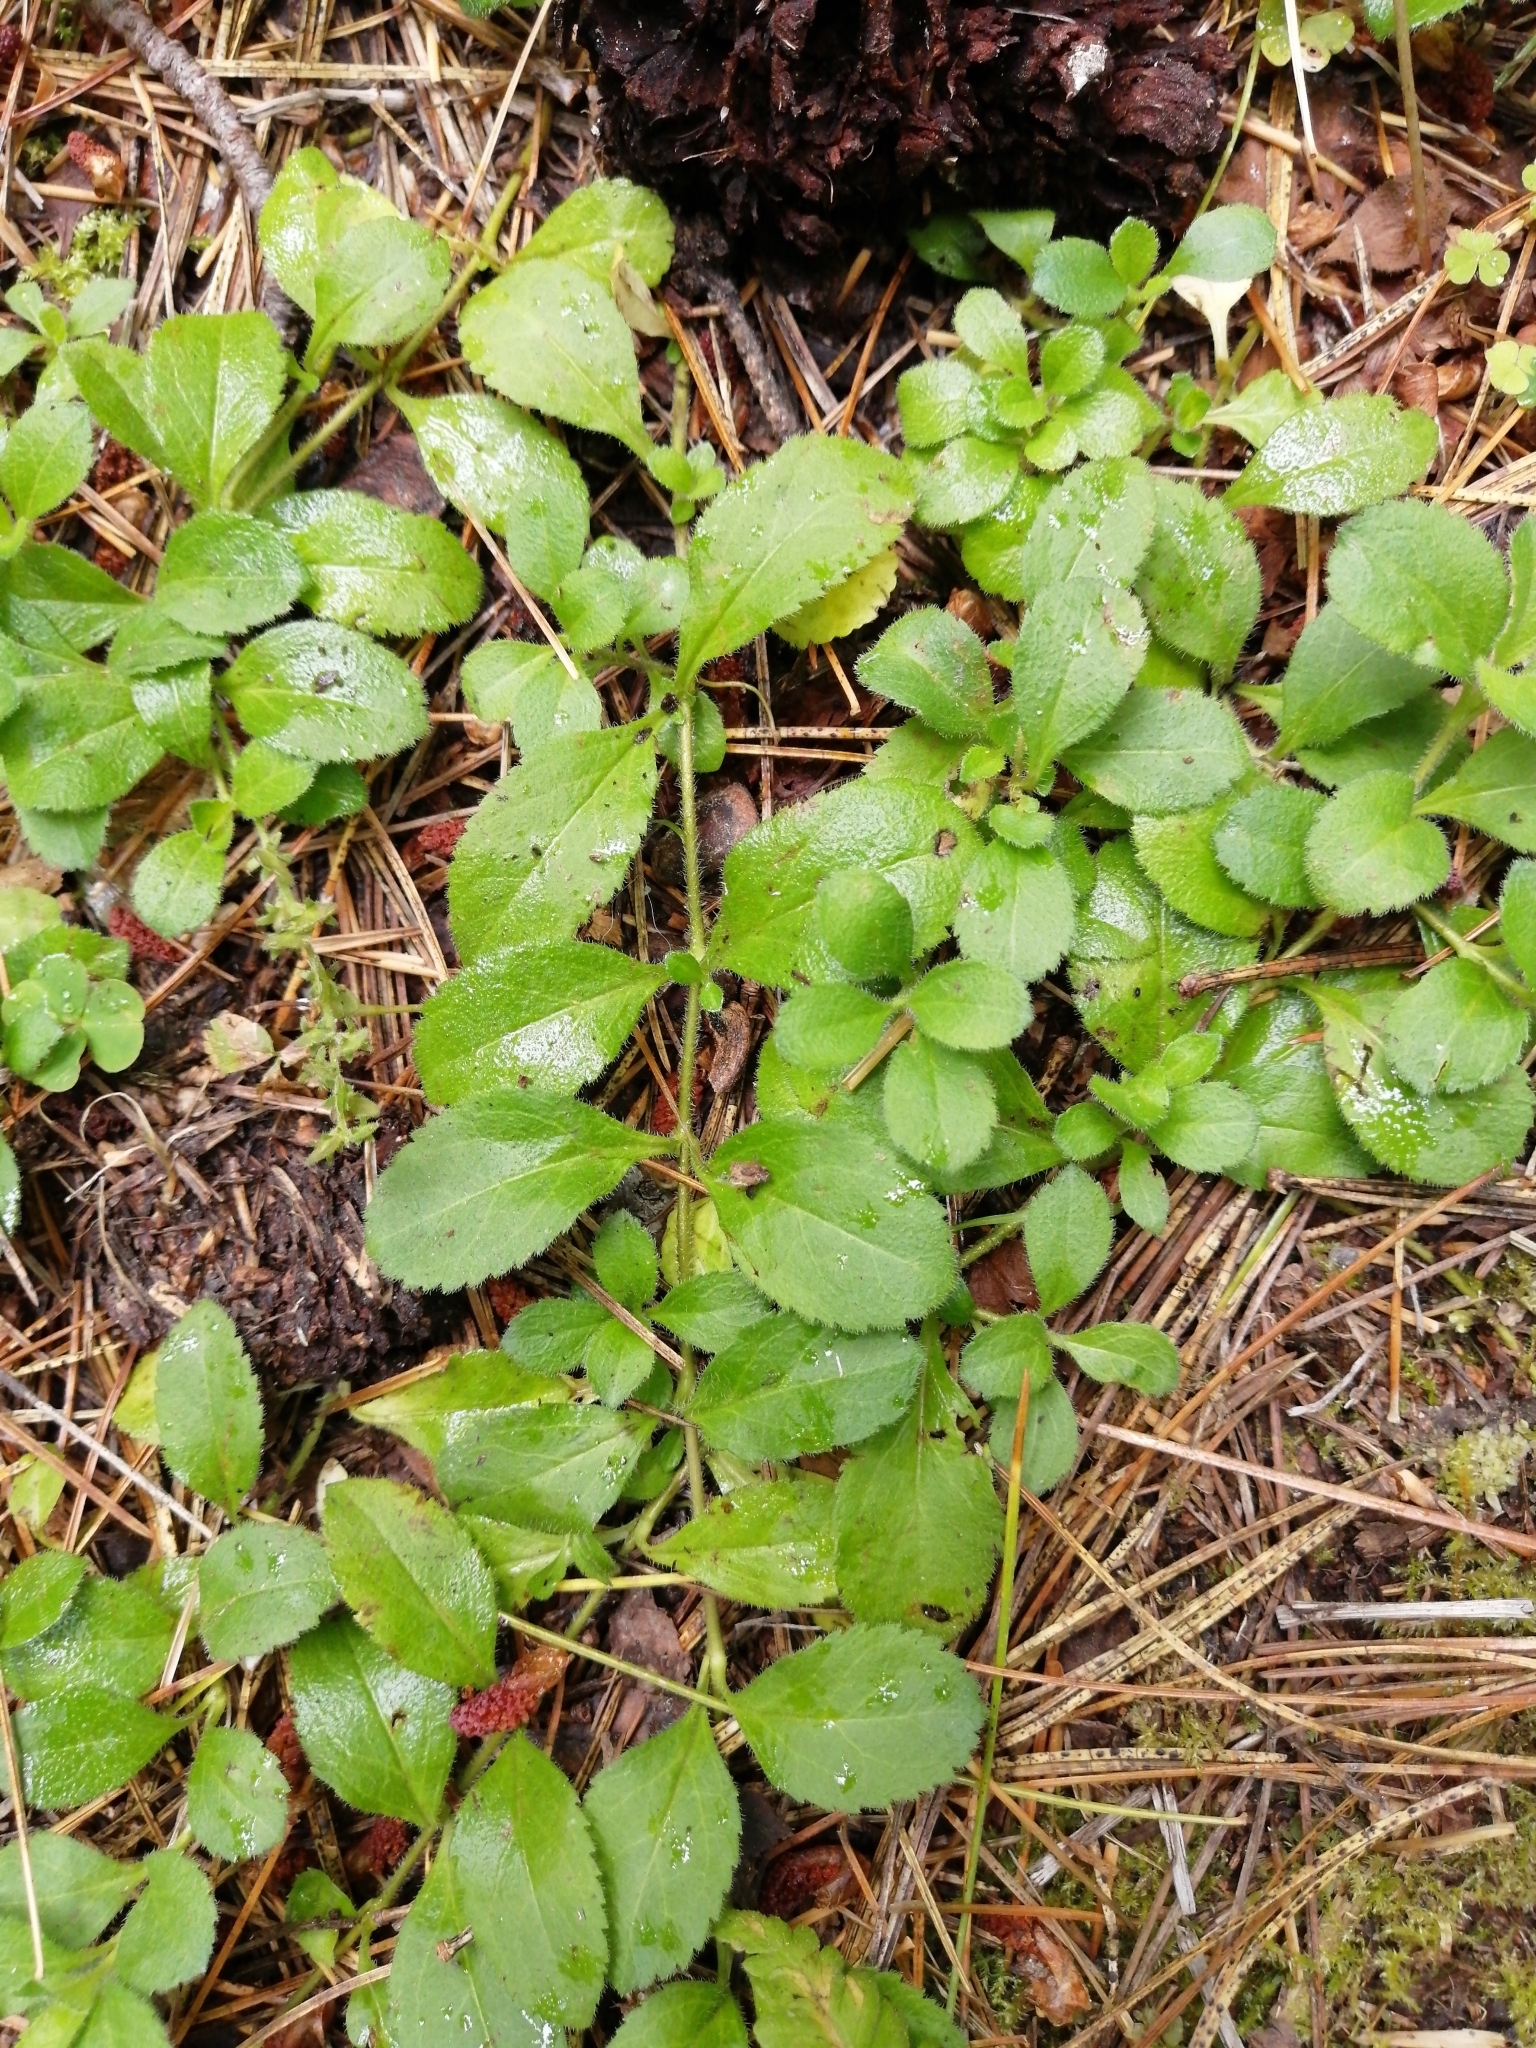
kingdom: Plantae
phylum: Tracheophyta
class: Magnoliopsida
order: Lamiales
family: Plantaginaceae
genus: Veronica
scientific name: Veronica officinalis
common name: Common speedwell
